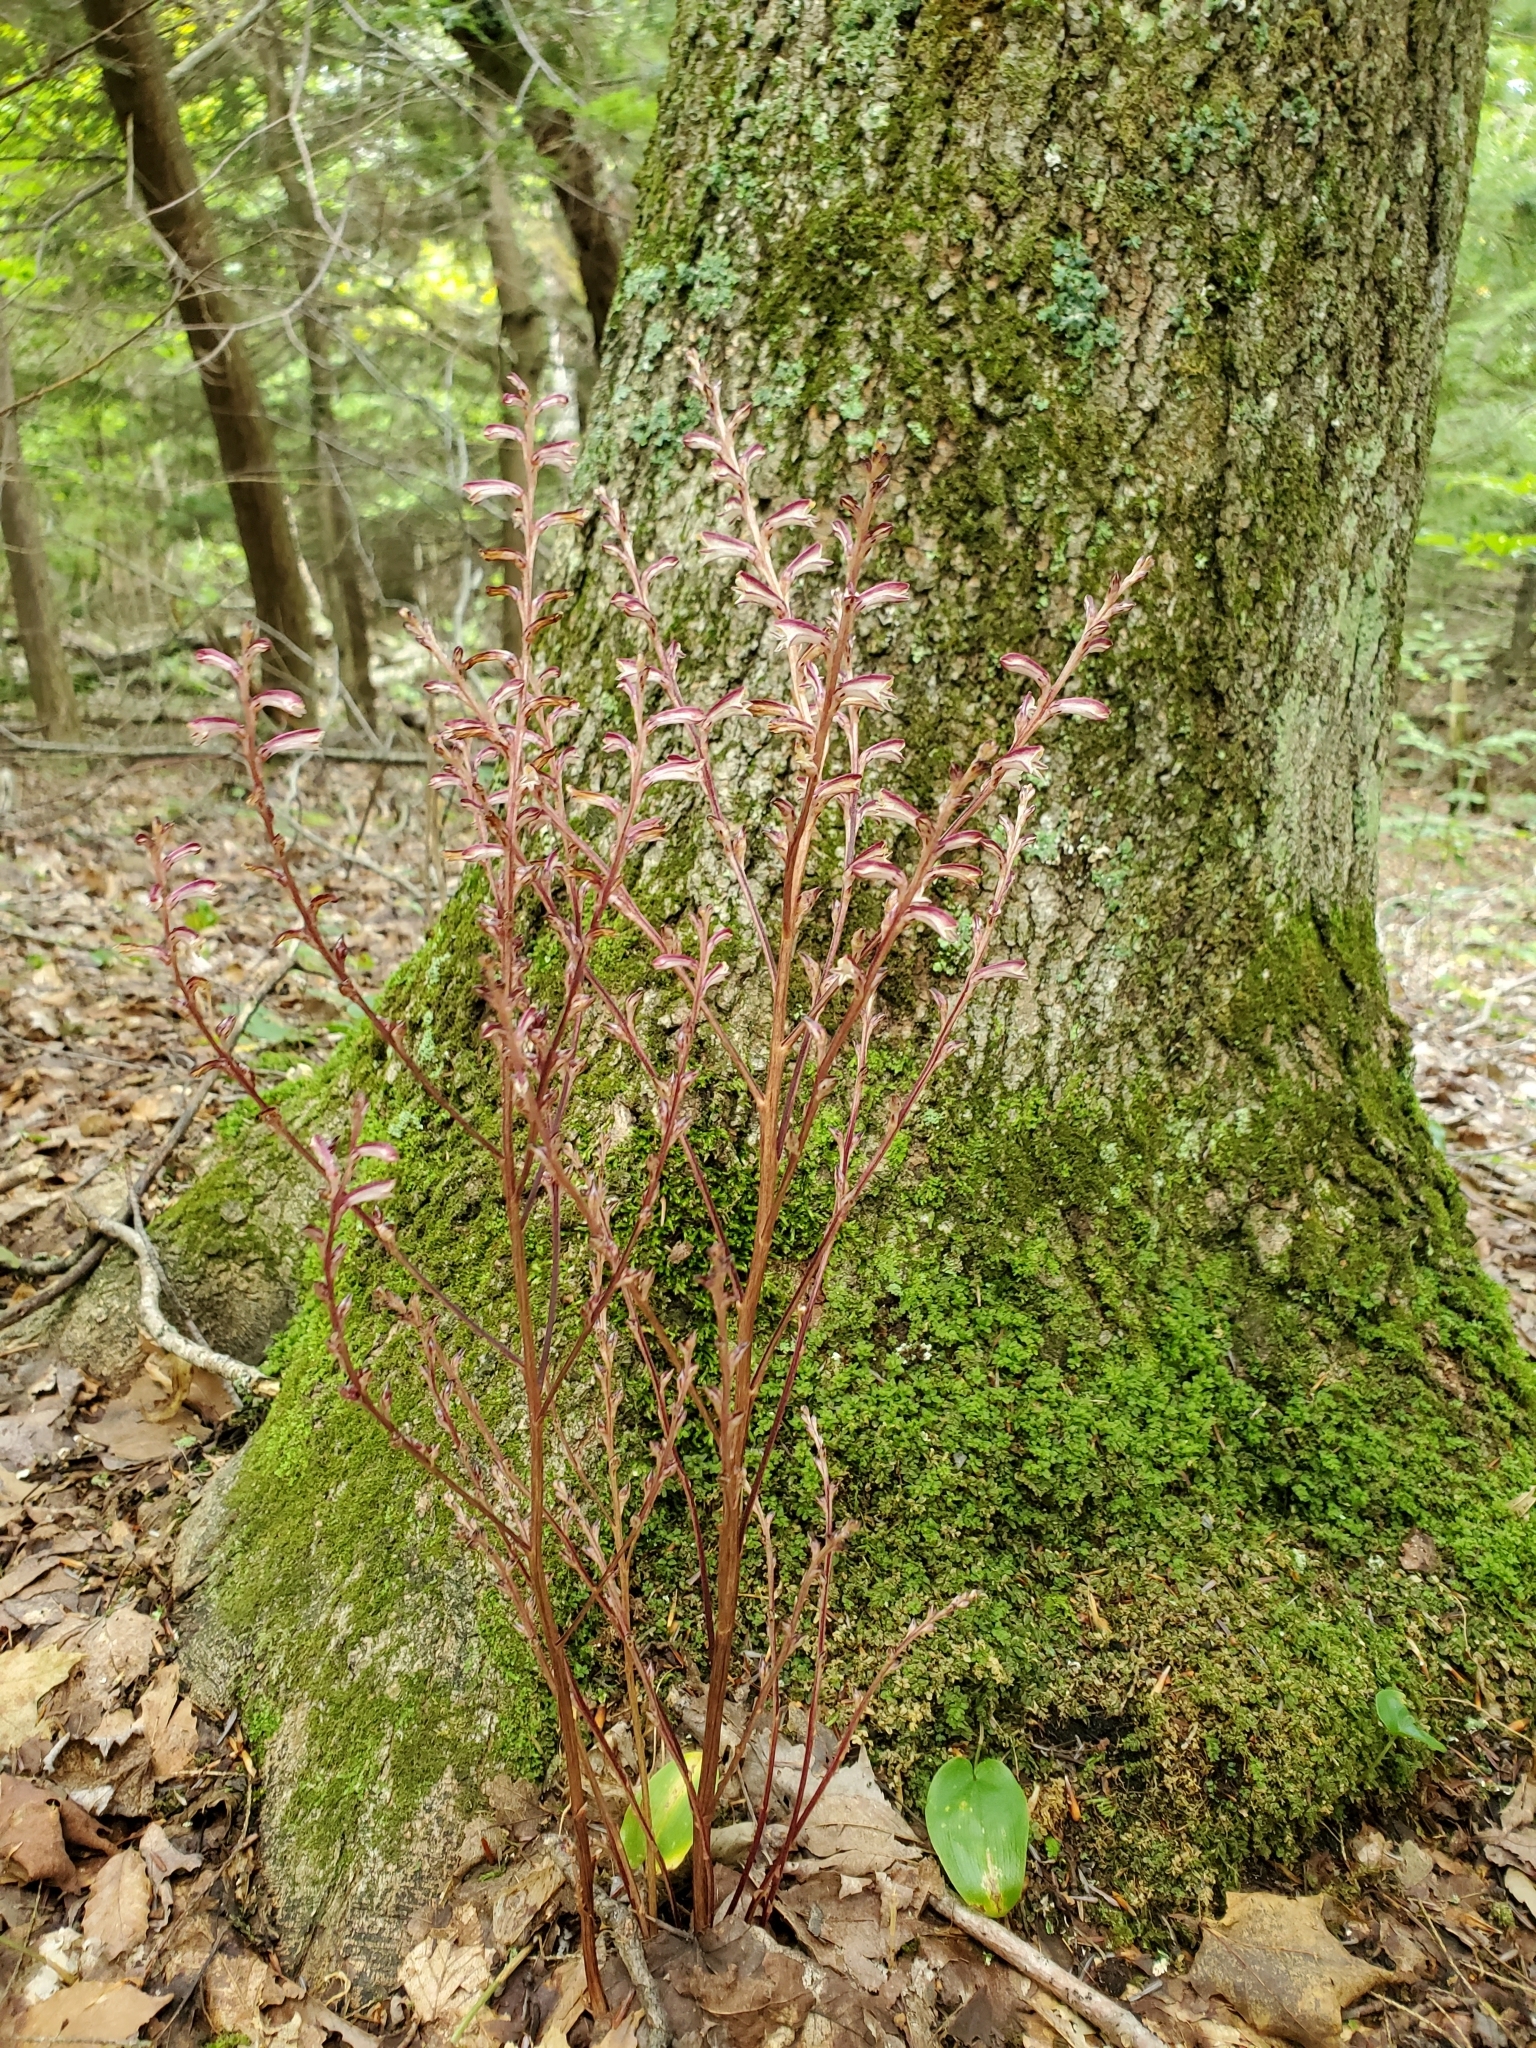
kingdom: Plantae
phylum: Tracheophyta
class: Magnoliopsida
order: Lamiales
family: Orobanchaceae
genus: Epifagus
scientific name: Epifagus virginiana
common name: Beechdrops
